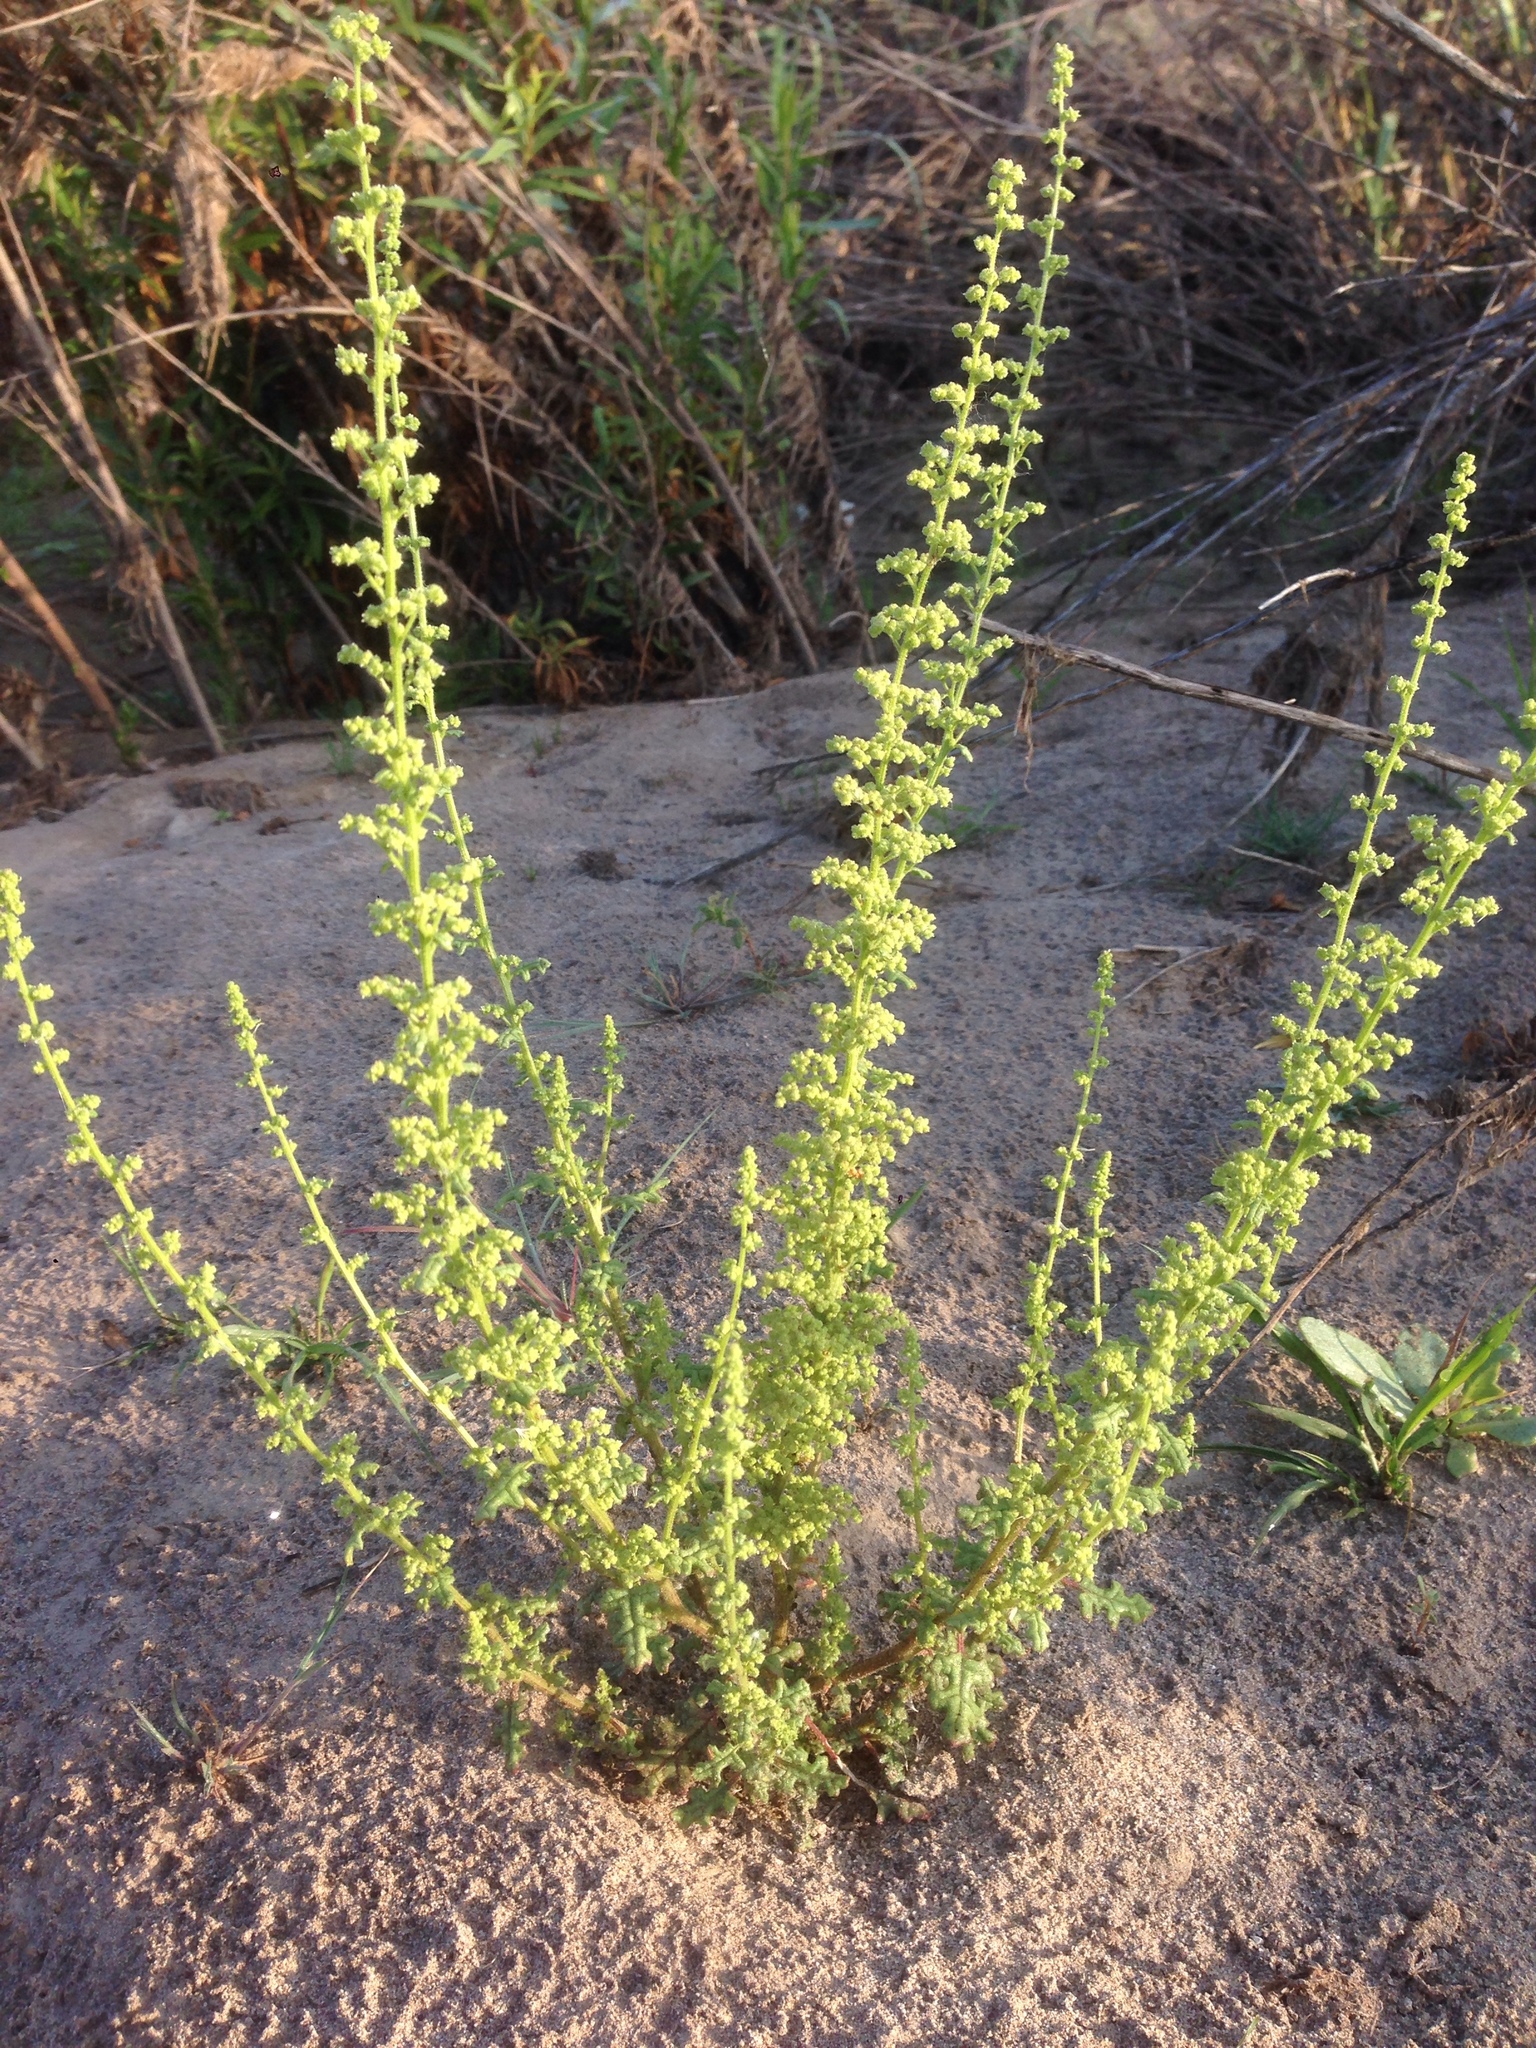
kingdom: Plantae
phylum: Tracheophyta
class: Magnoliopsida
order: Caryophyllales
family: Amaranthaceae
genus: Dysphania
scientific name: Dysphania botrys
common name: Feather-geranium
